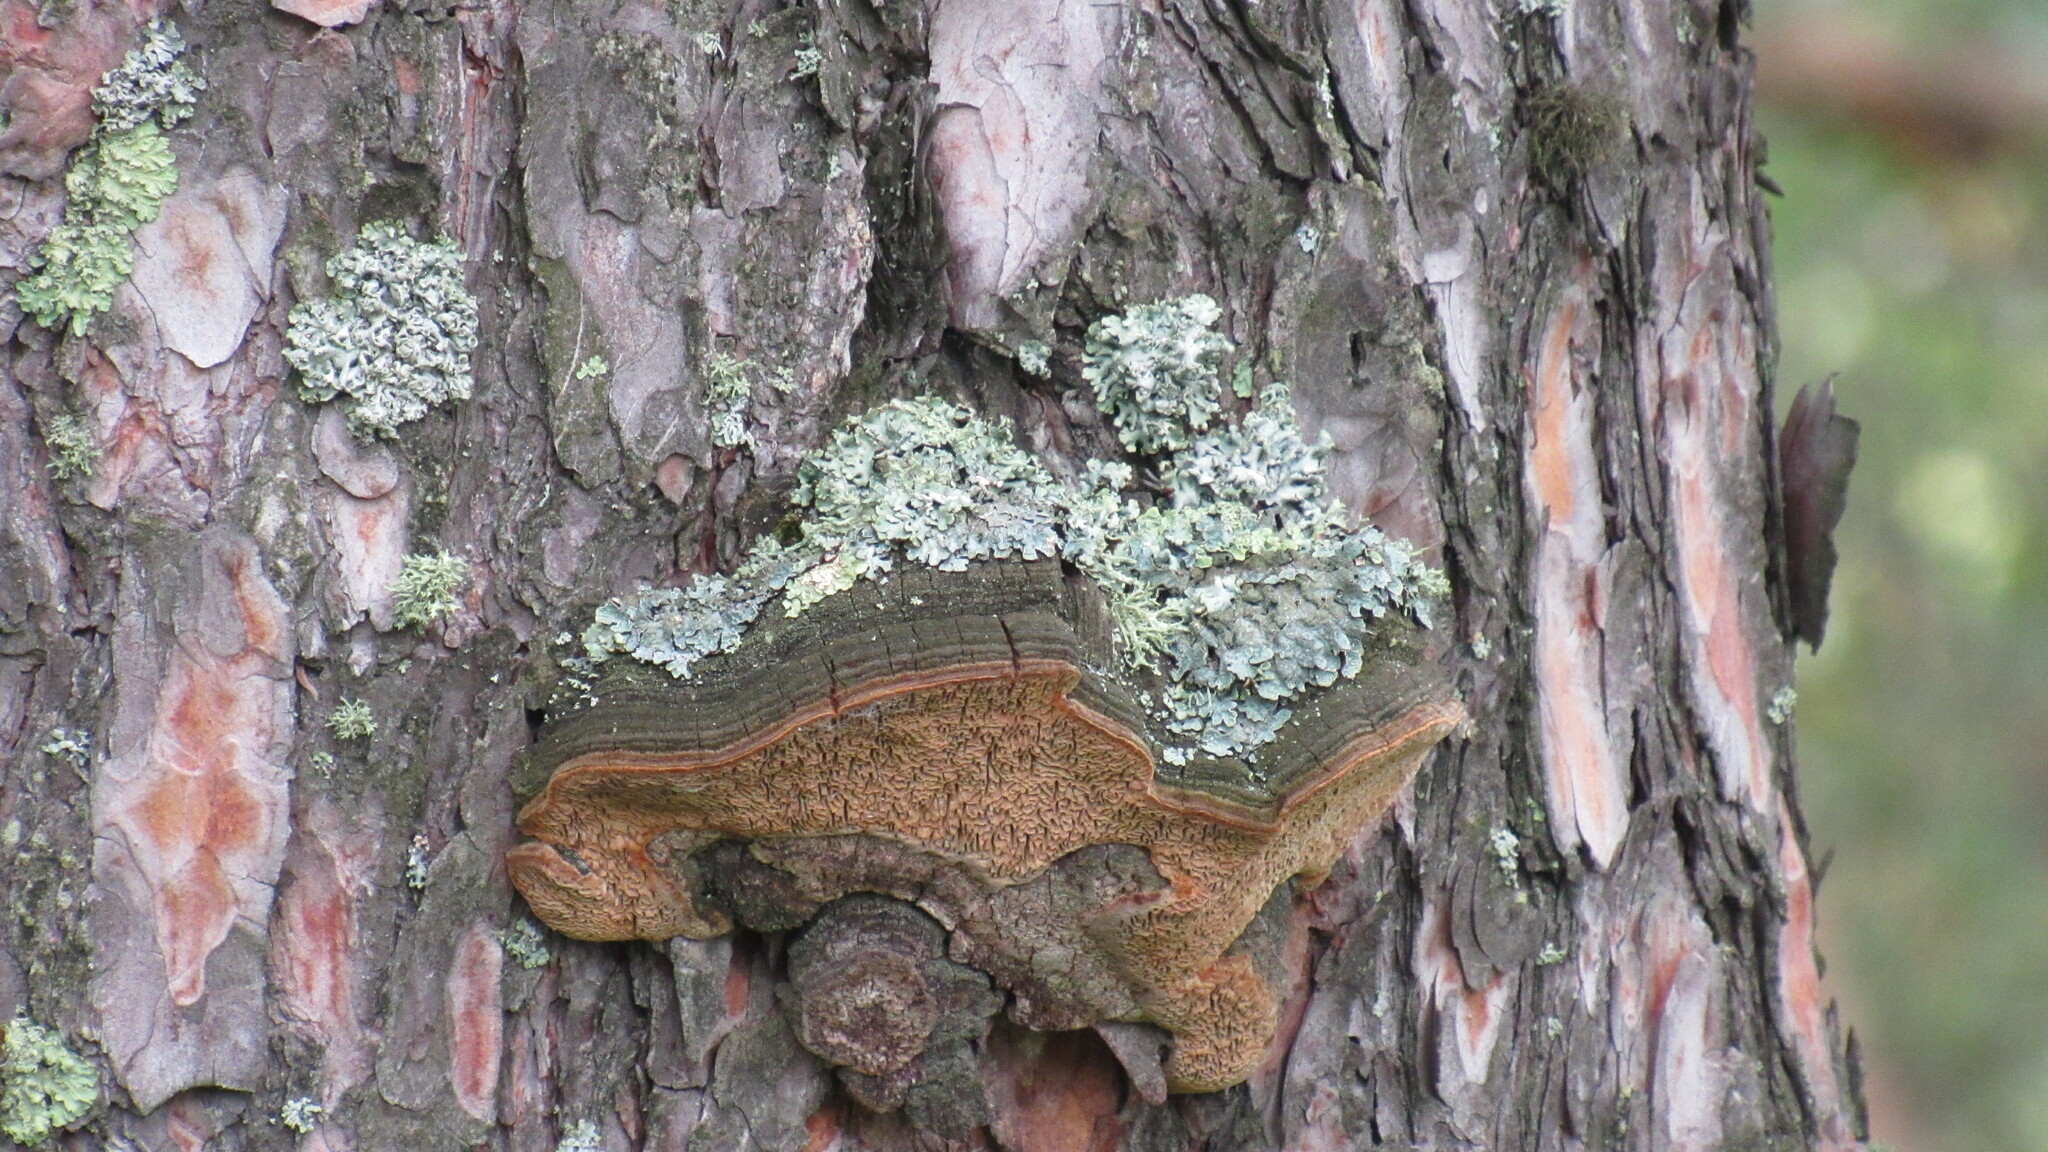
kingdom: Fungi
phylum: Basidiomycota
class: Agaricomycetes
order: Hymenochaetales
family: Hymenochaetaceae
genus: Porodaedalea
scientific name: Porodaedalea pini
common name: Pine bracket
